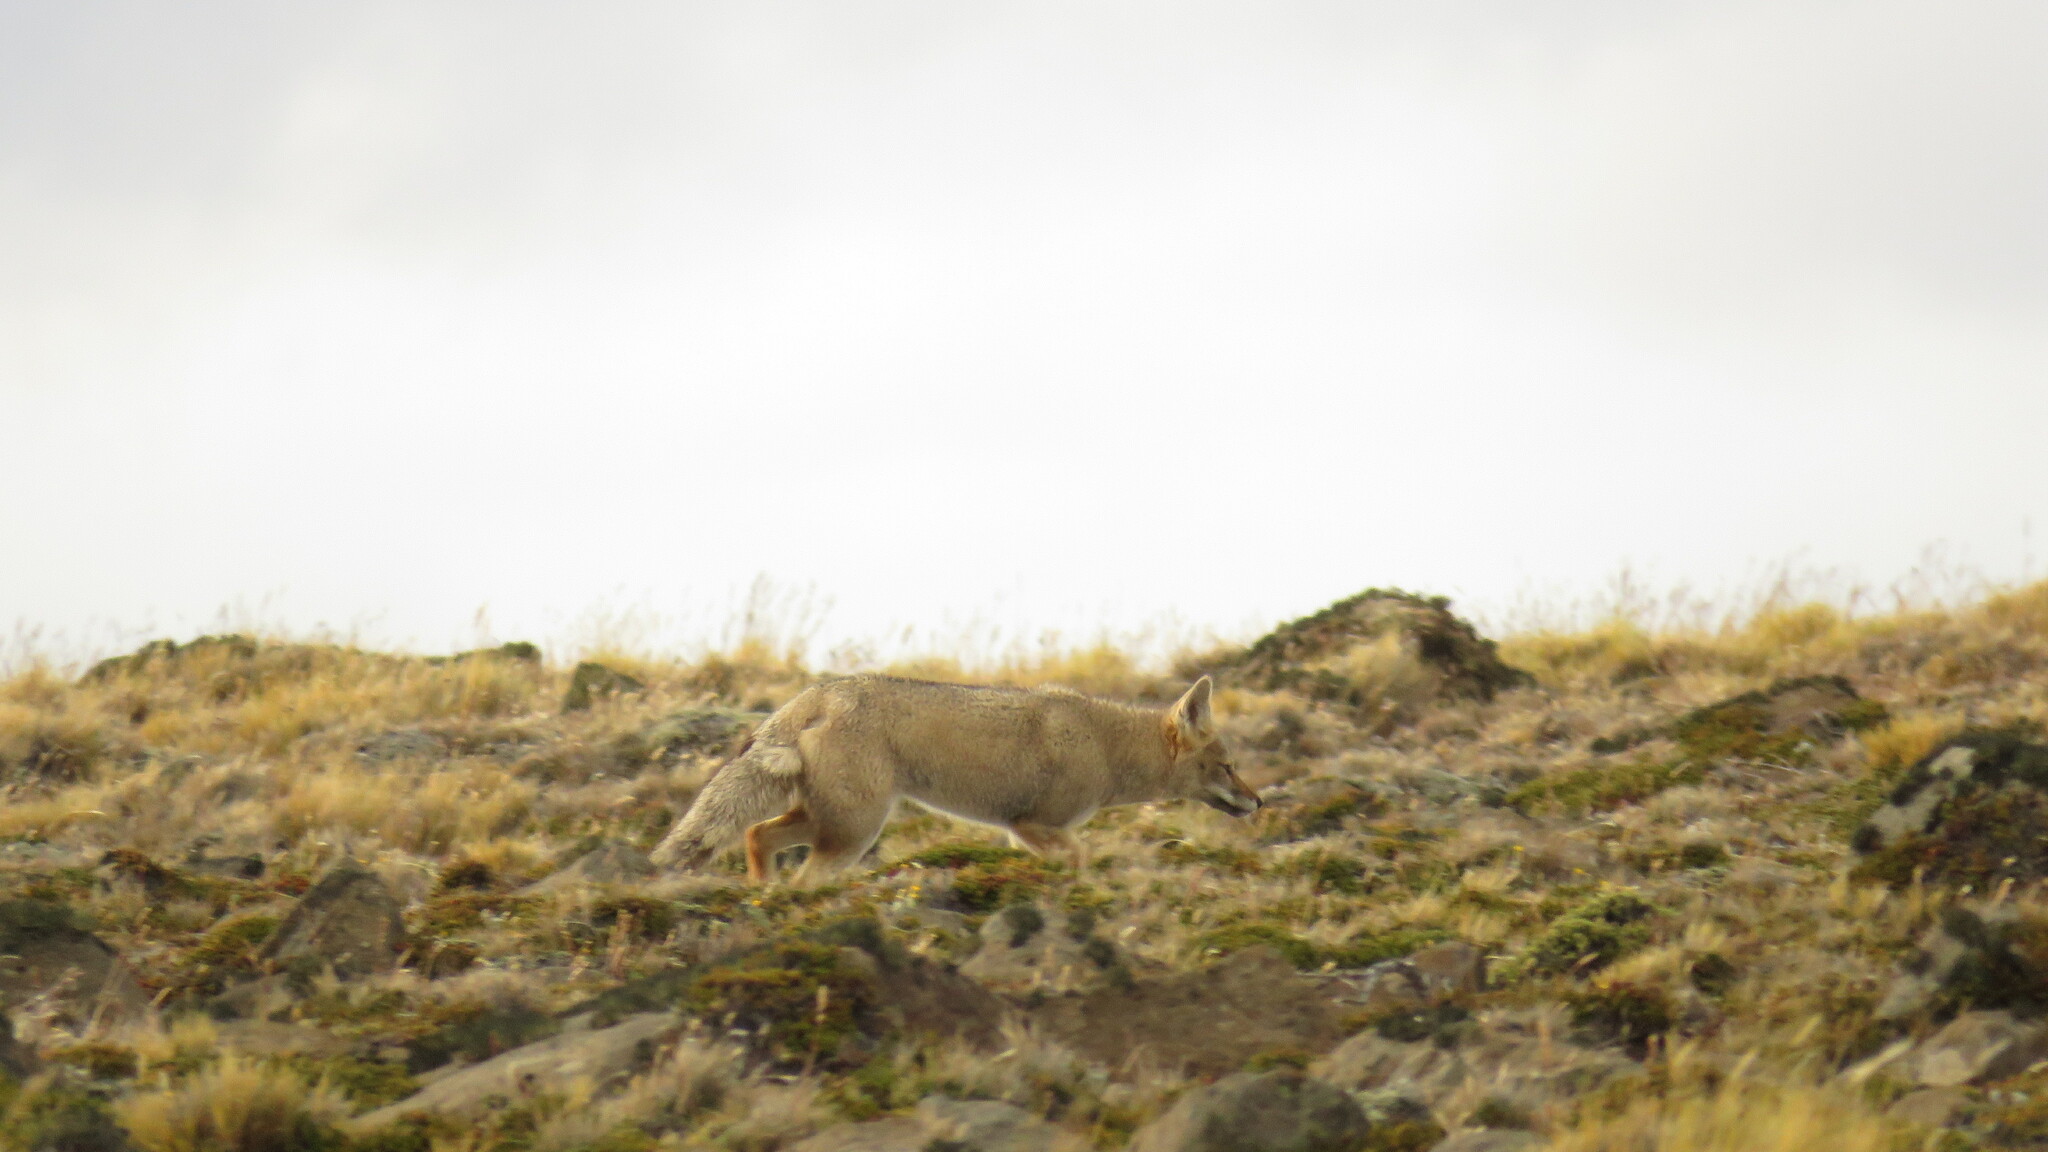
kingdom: Animalia
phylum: Chordata
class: Mammalia
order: Carnivora
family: Canidae
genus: Lycalopex
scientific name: Lycalopex gymnocercus
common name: Pampas fox
